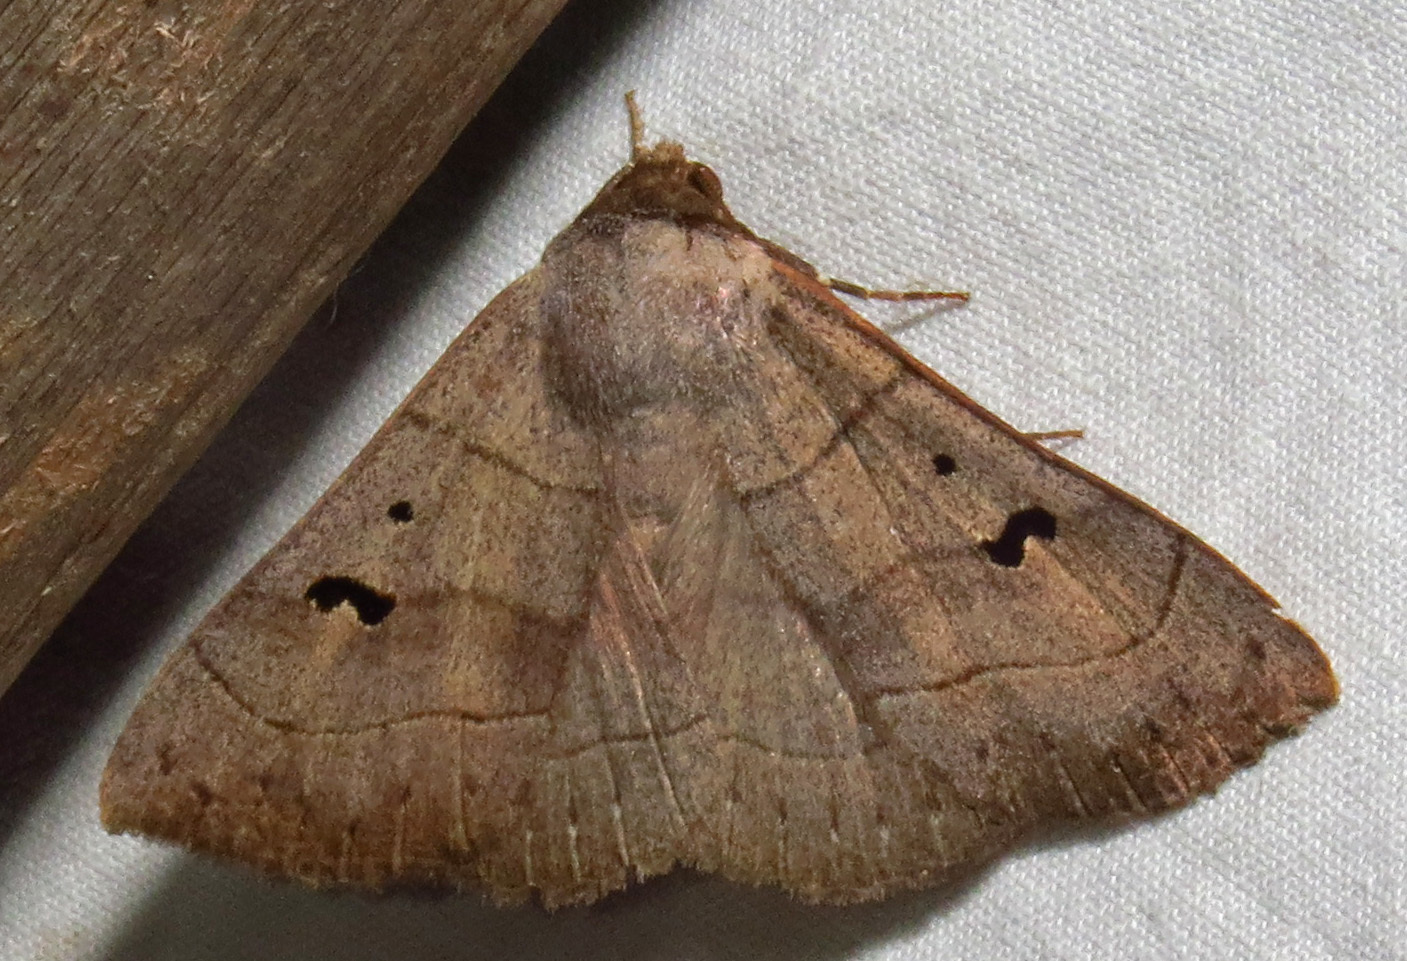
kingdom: Animalia
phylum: Arthropoda
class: Insecta
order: Lepidoptera
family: Erebidae
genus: Panopoda
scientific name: Panopoda carneicosta
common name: Brown panopoda moth
